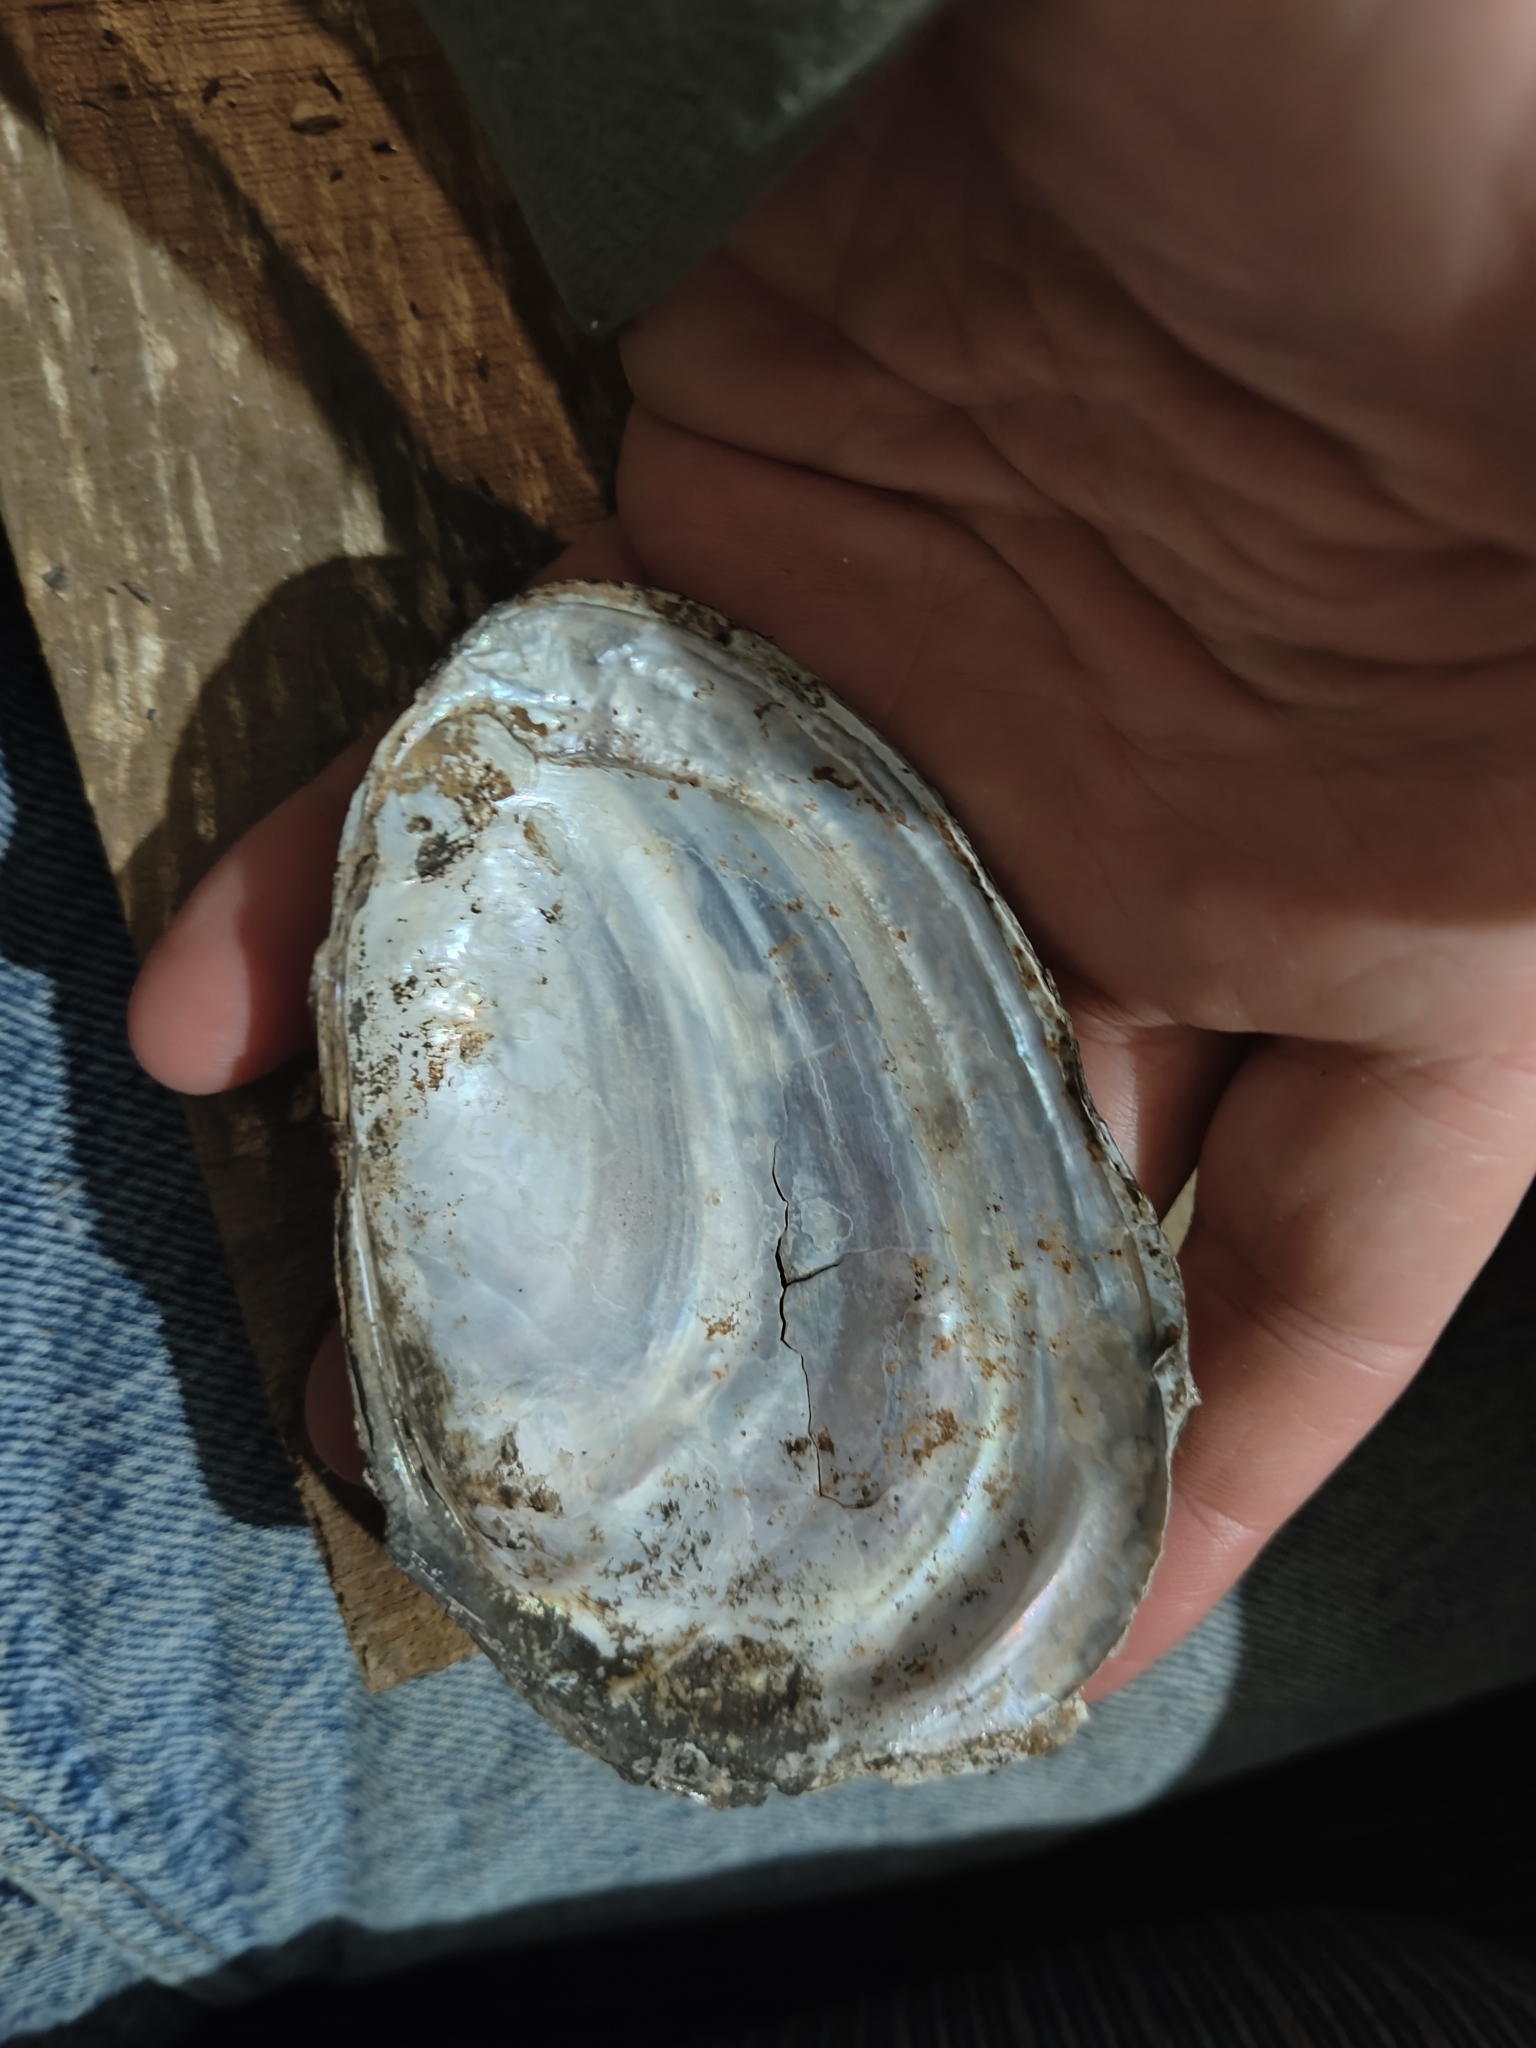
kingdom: Animalia
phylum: Mollusca
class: Bivalvia
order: Unionida
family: Unionidae
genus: Potamilus
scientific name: Potamilus fragilis
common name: Fragile papershell
